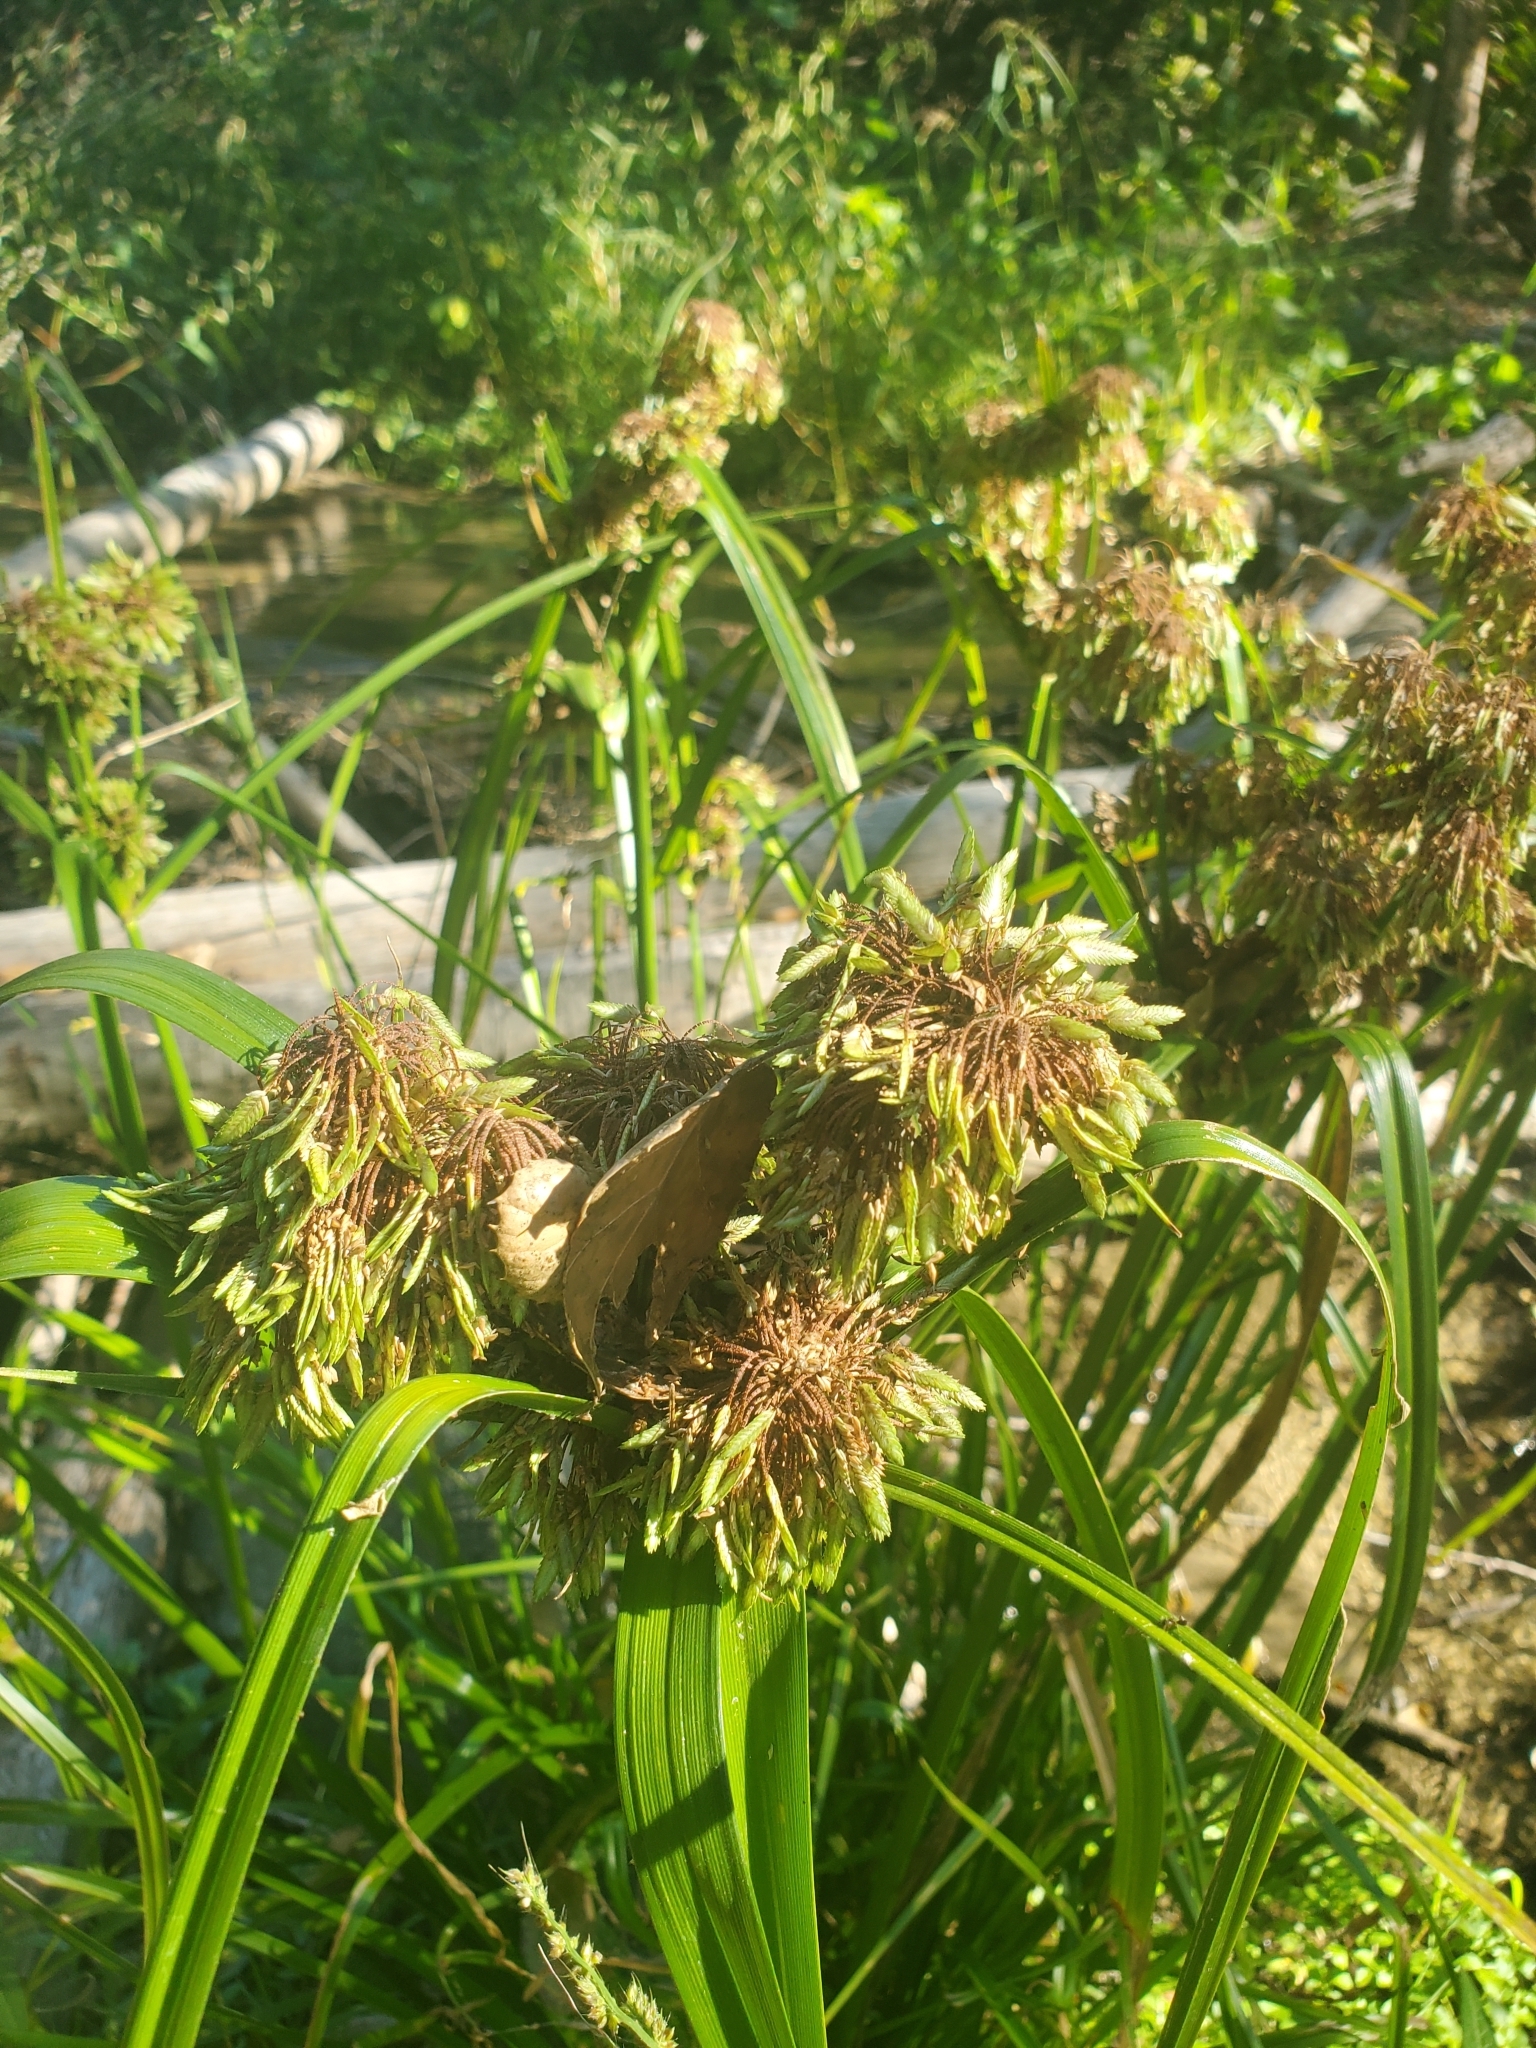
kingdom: Plantae
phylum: Tracheophyta
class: Liliopsida
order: Poales
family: Cyperaceae
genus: Cyperus
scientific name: Cyperus eragrostis
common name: Tall flatsedge
